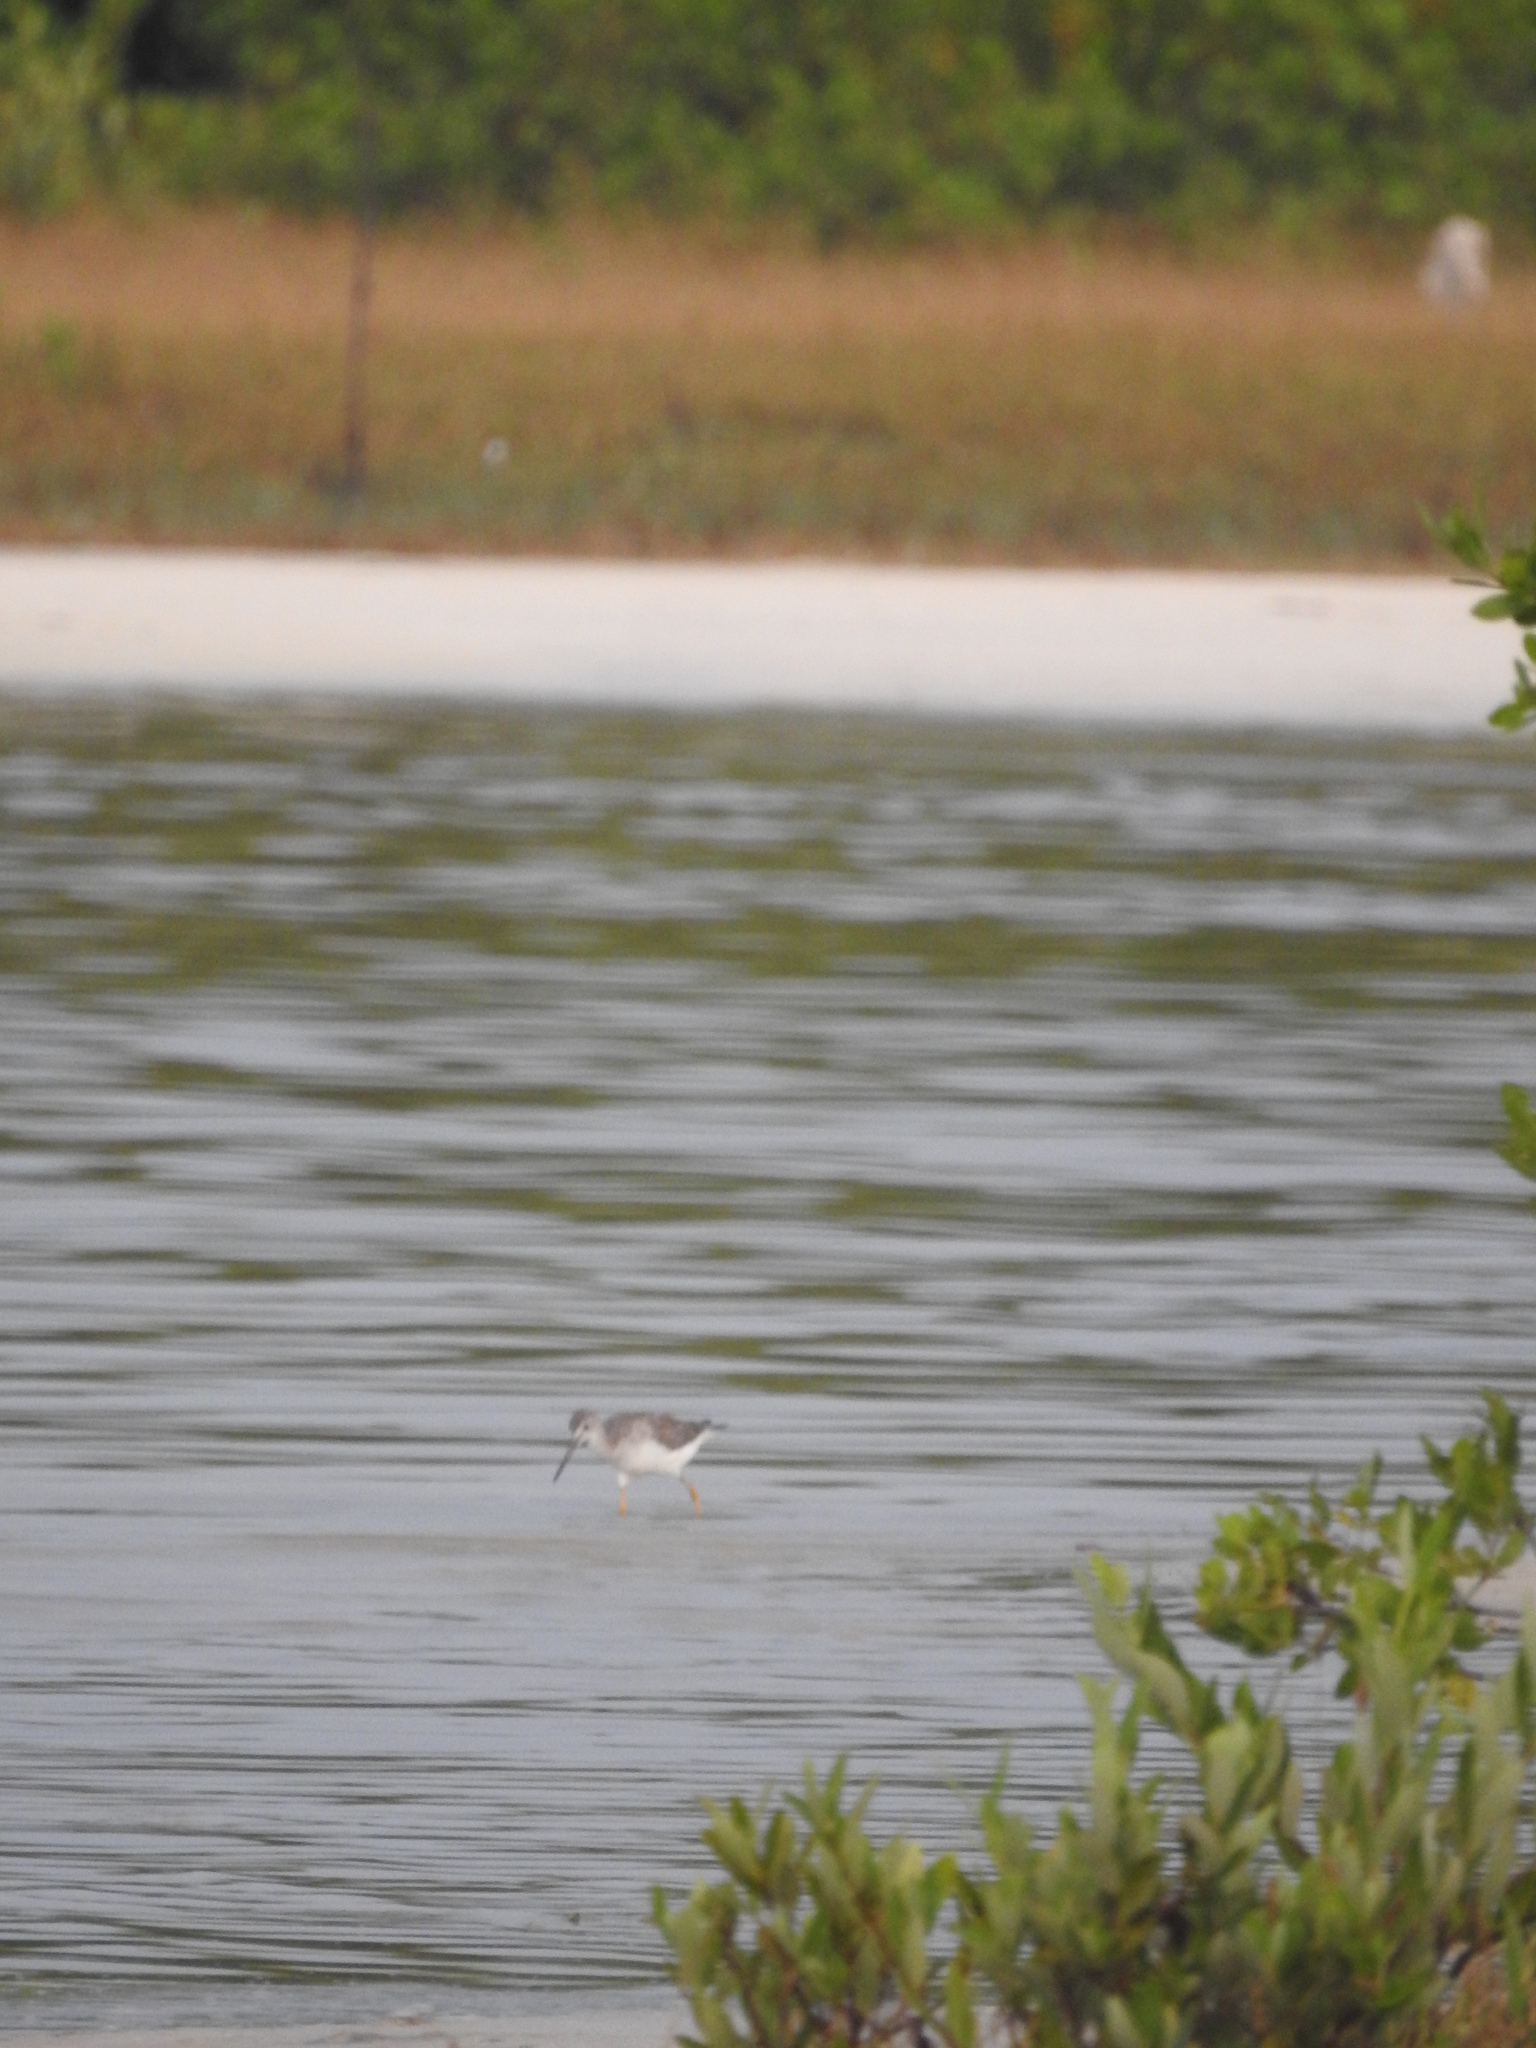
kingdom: Animalia
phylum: Chordata
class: Aves
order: Charadriiformes
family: Scolopacidae
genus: Tringa
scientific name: Tringa melanoleuca
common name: Greater yellowlegs
